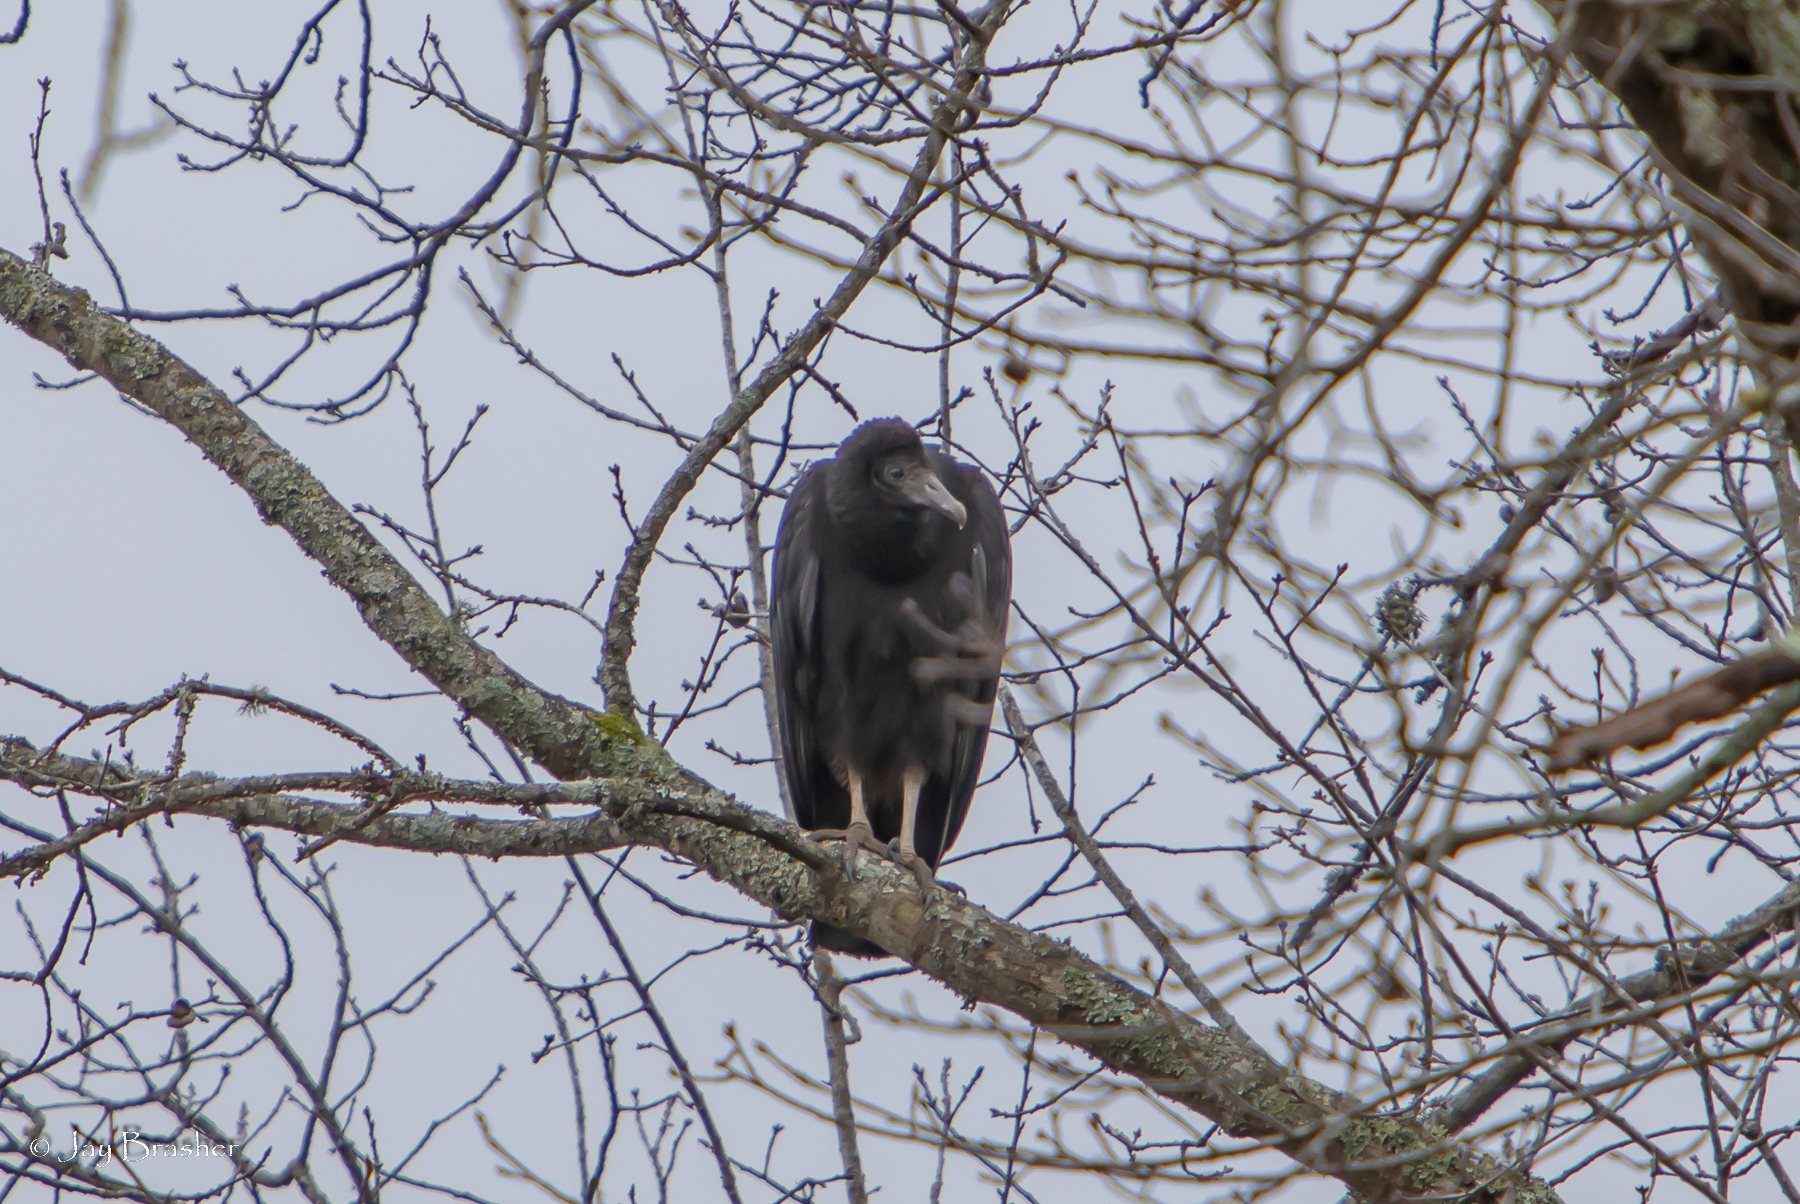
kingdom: Animalia
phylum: Chordata
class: Aves
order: Accipitriformes
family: Cathartidae
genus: Coragyps
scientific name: Coragyps atratus
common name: Black vulture
